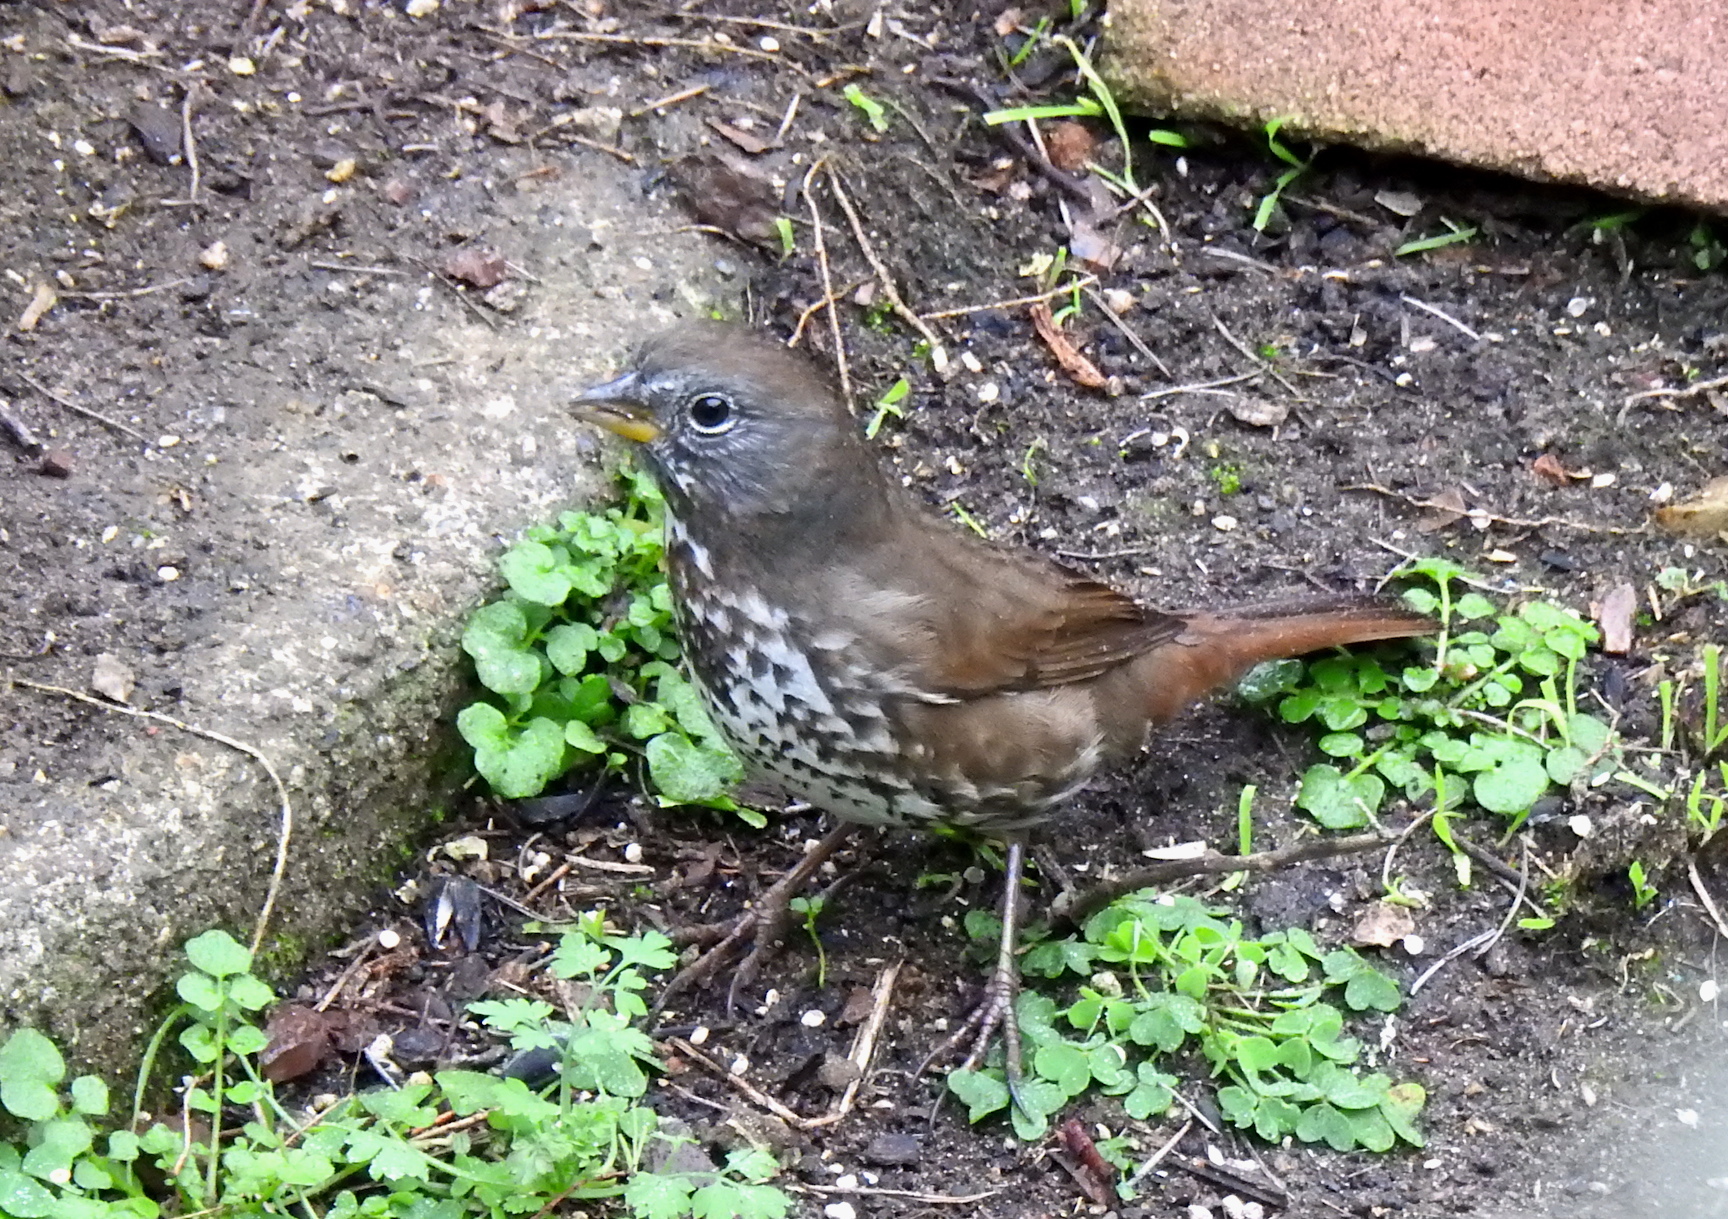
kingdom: Animalia
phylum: Chordata
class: Aves
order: Passeriformes
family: Passerellidae
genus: Passerella
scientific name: Passerella iliaca
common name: Fox sparrow
